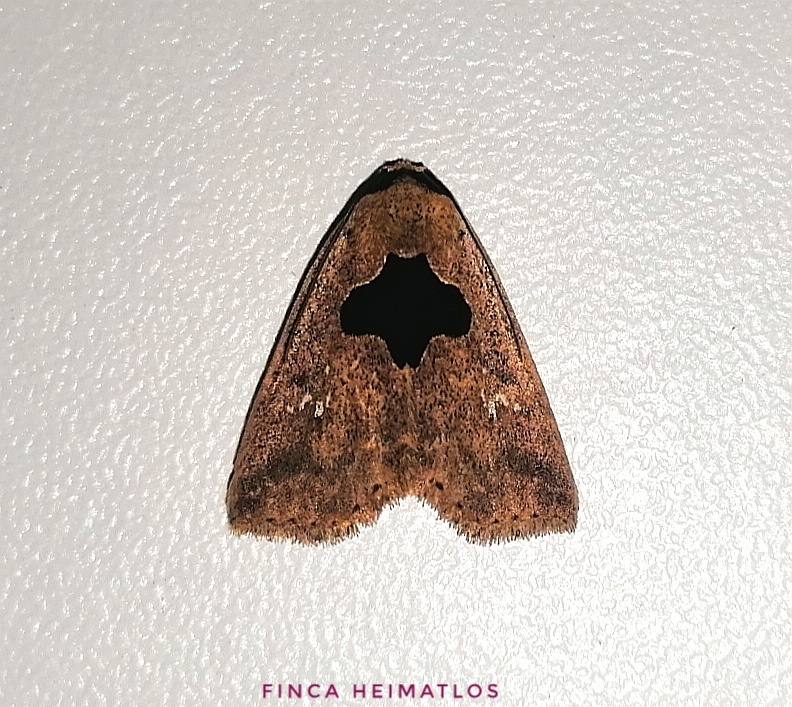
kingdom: Animalia
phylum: Arthropoda
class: Insecta
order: Lepidoptera
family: Erebidae
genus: Baniana
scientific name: Baniana veluta
